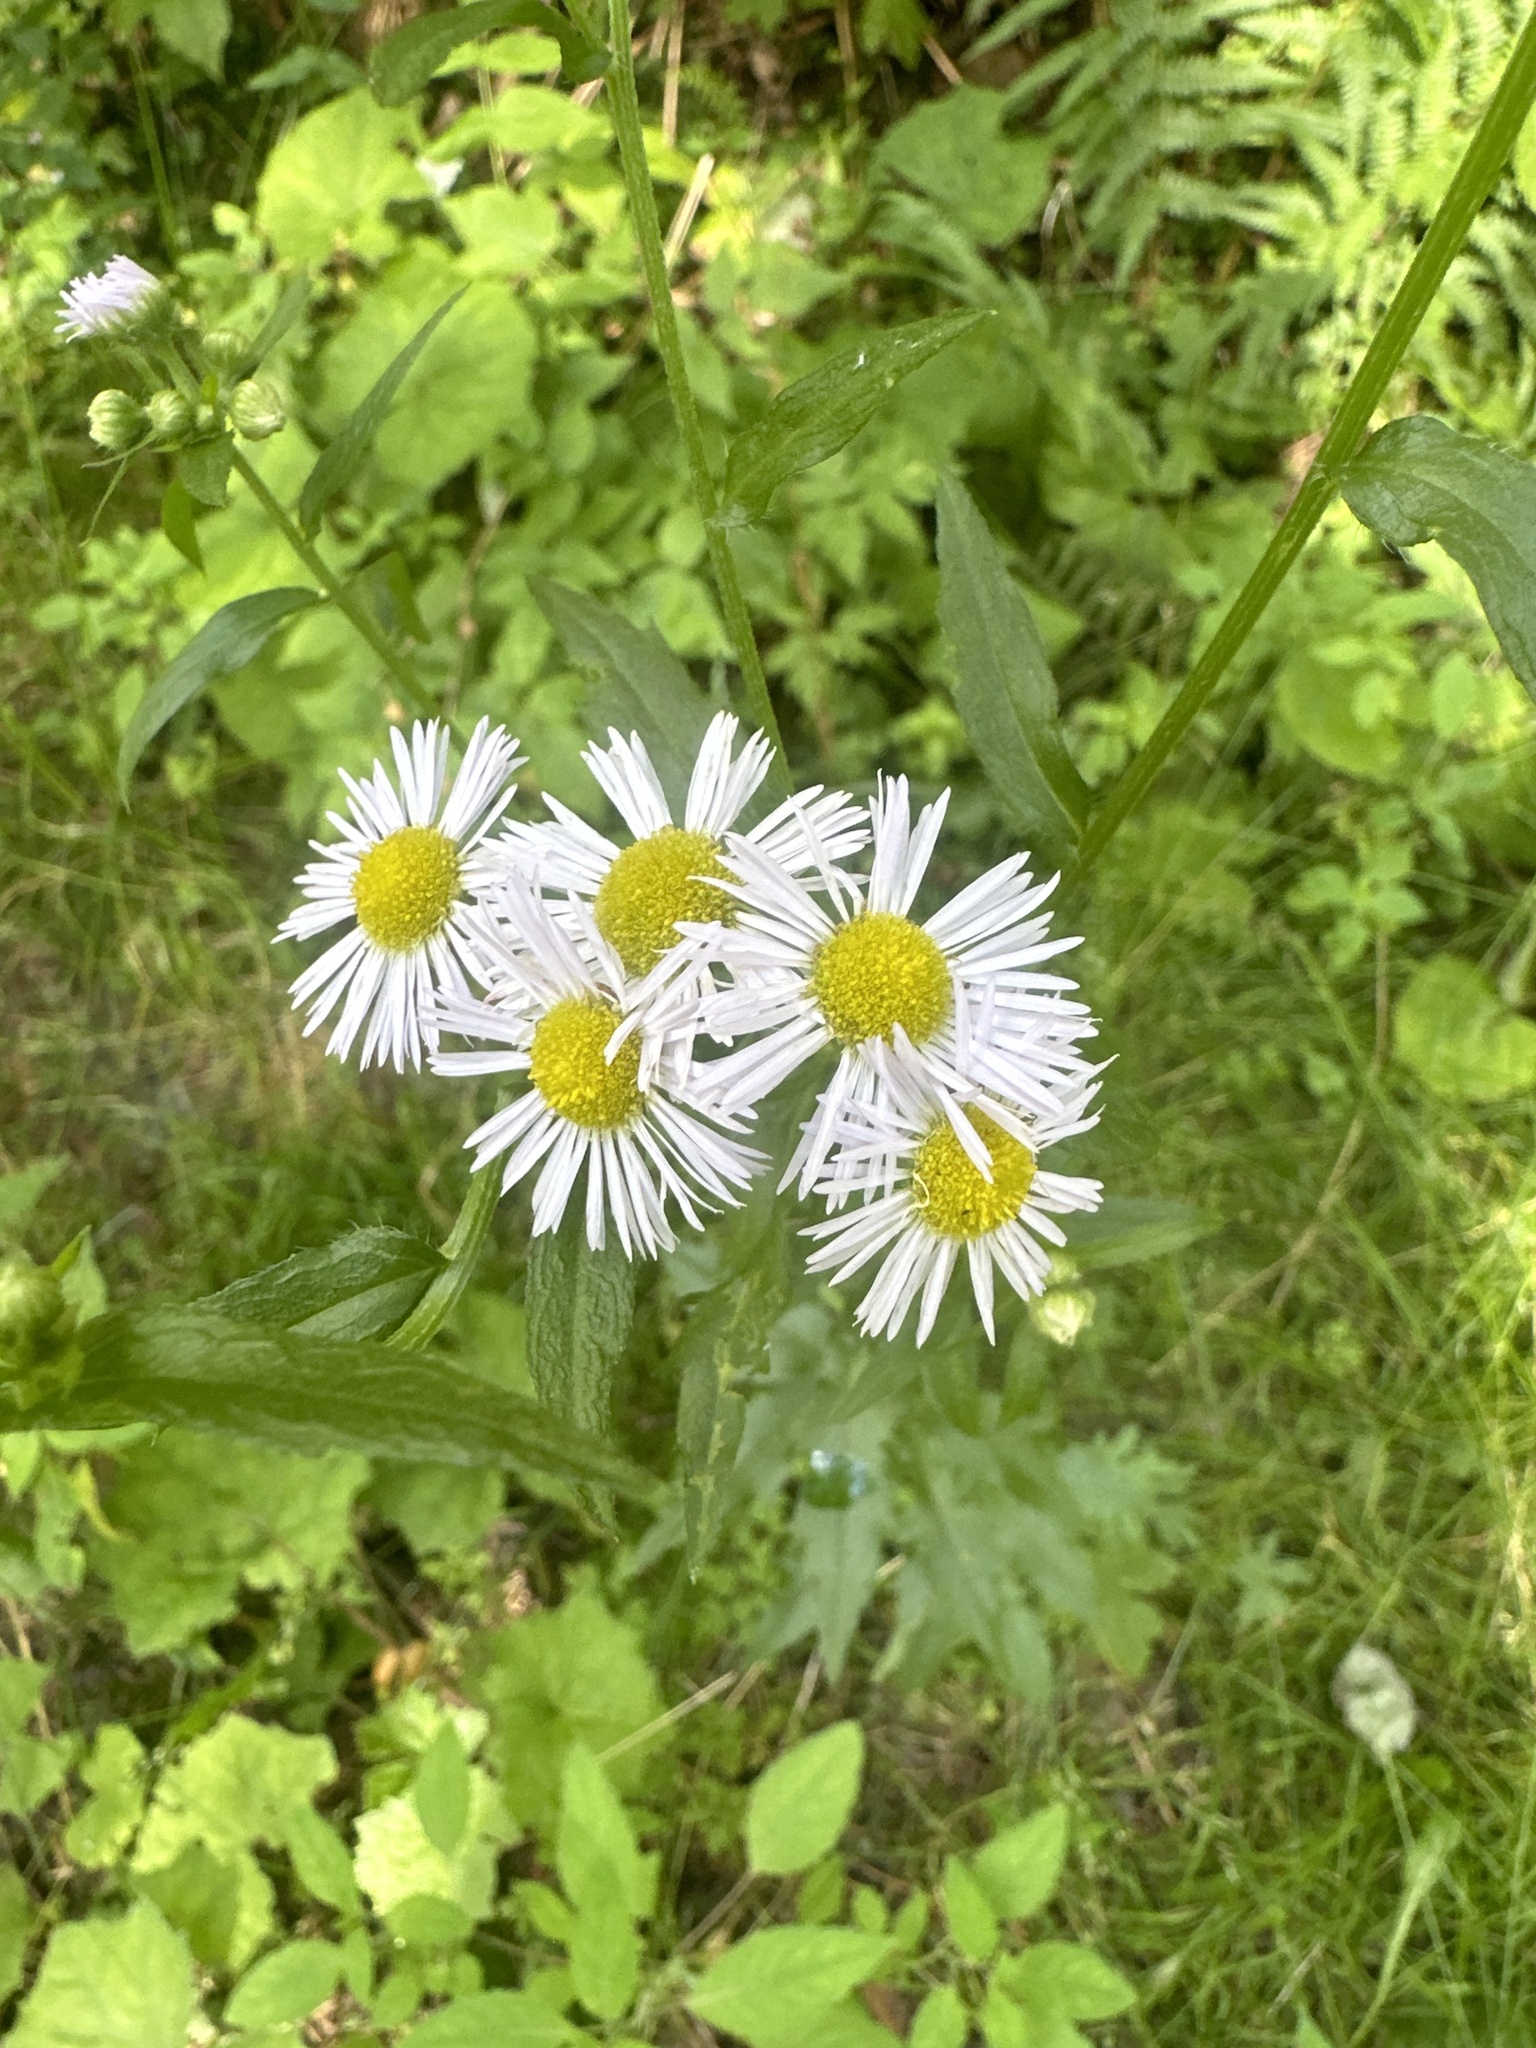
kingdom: Plantae
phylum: Tracheophyta
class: Magnoliopsida
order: Asterales
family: Asteraceae
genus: Erigeron
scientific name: Erigeron annuus
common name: Tall fleabane
